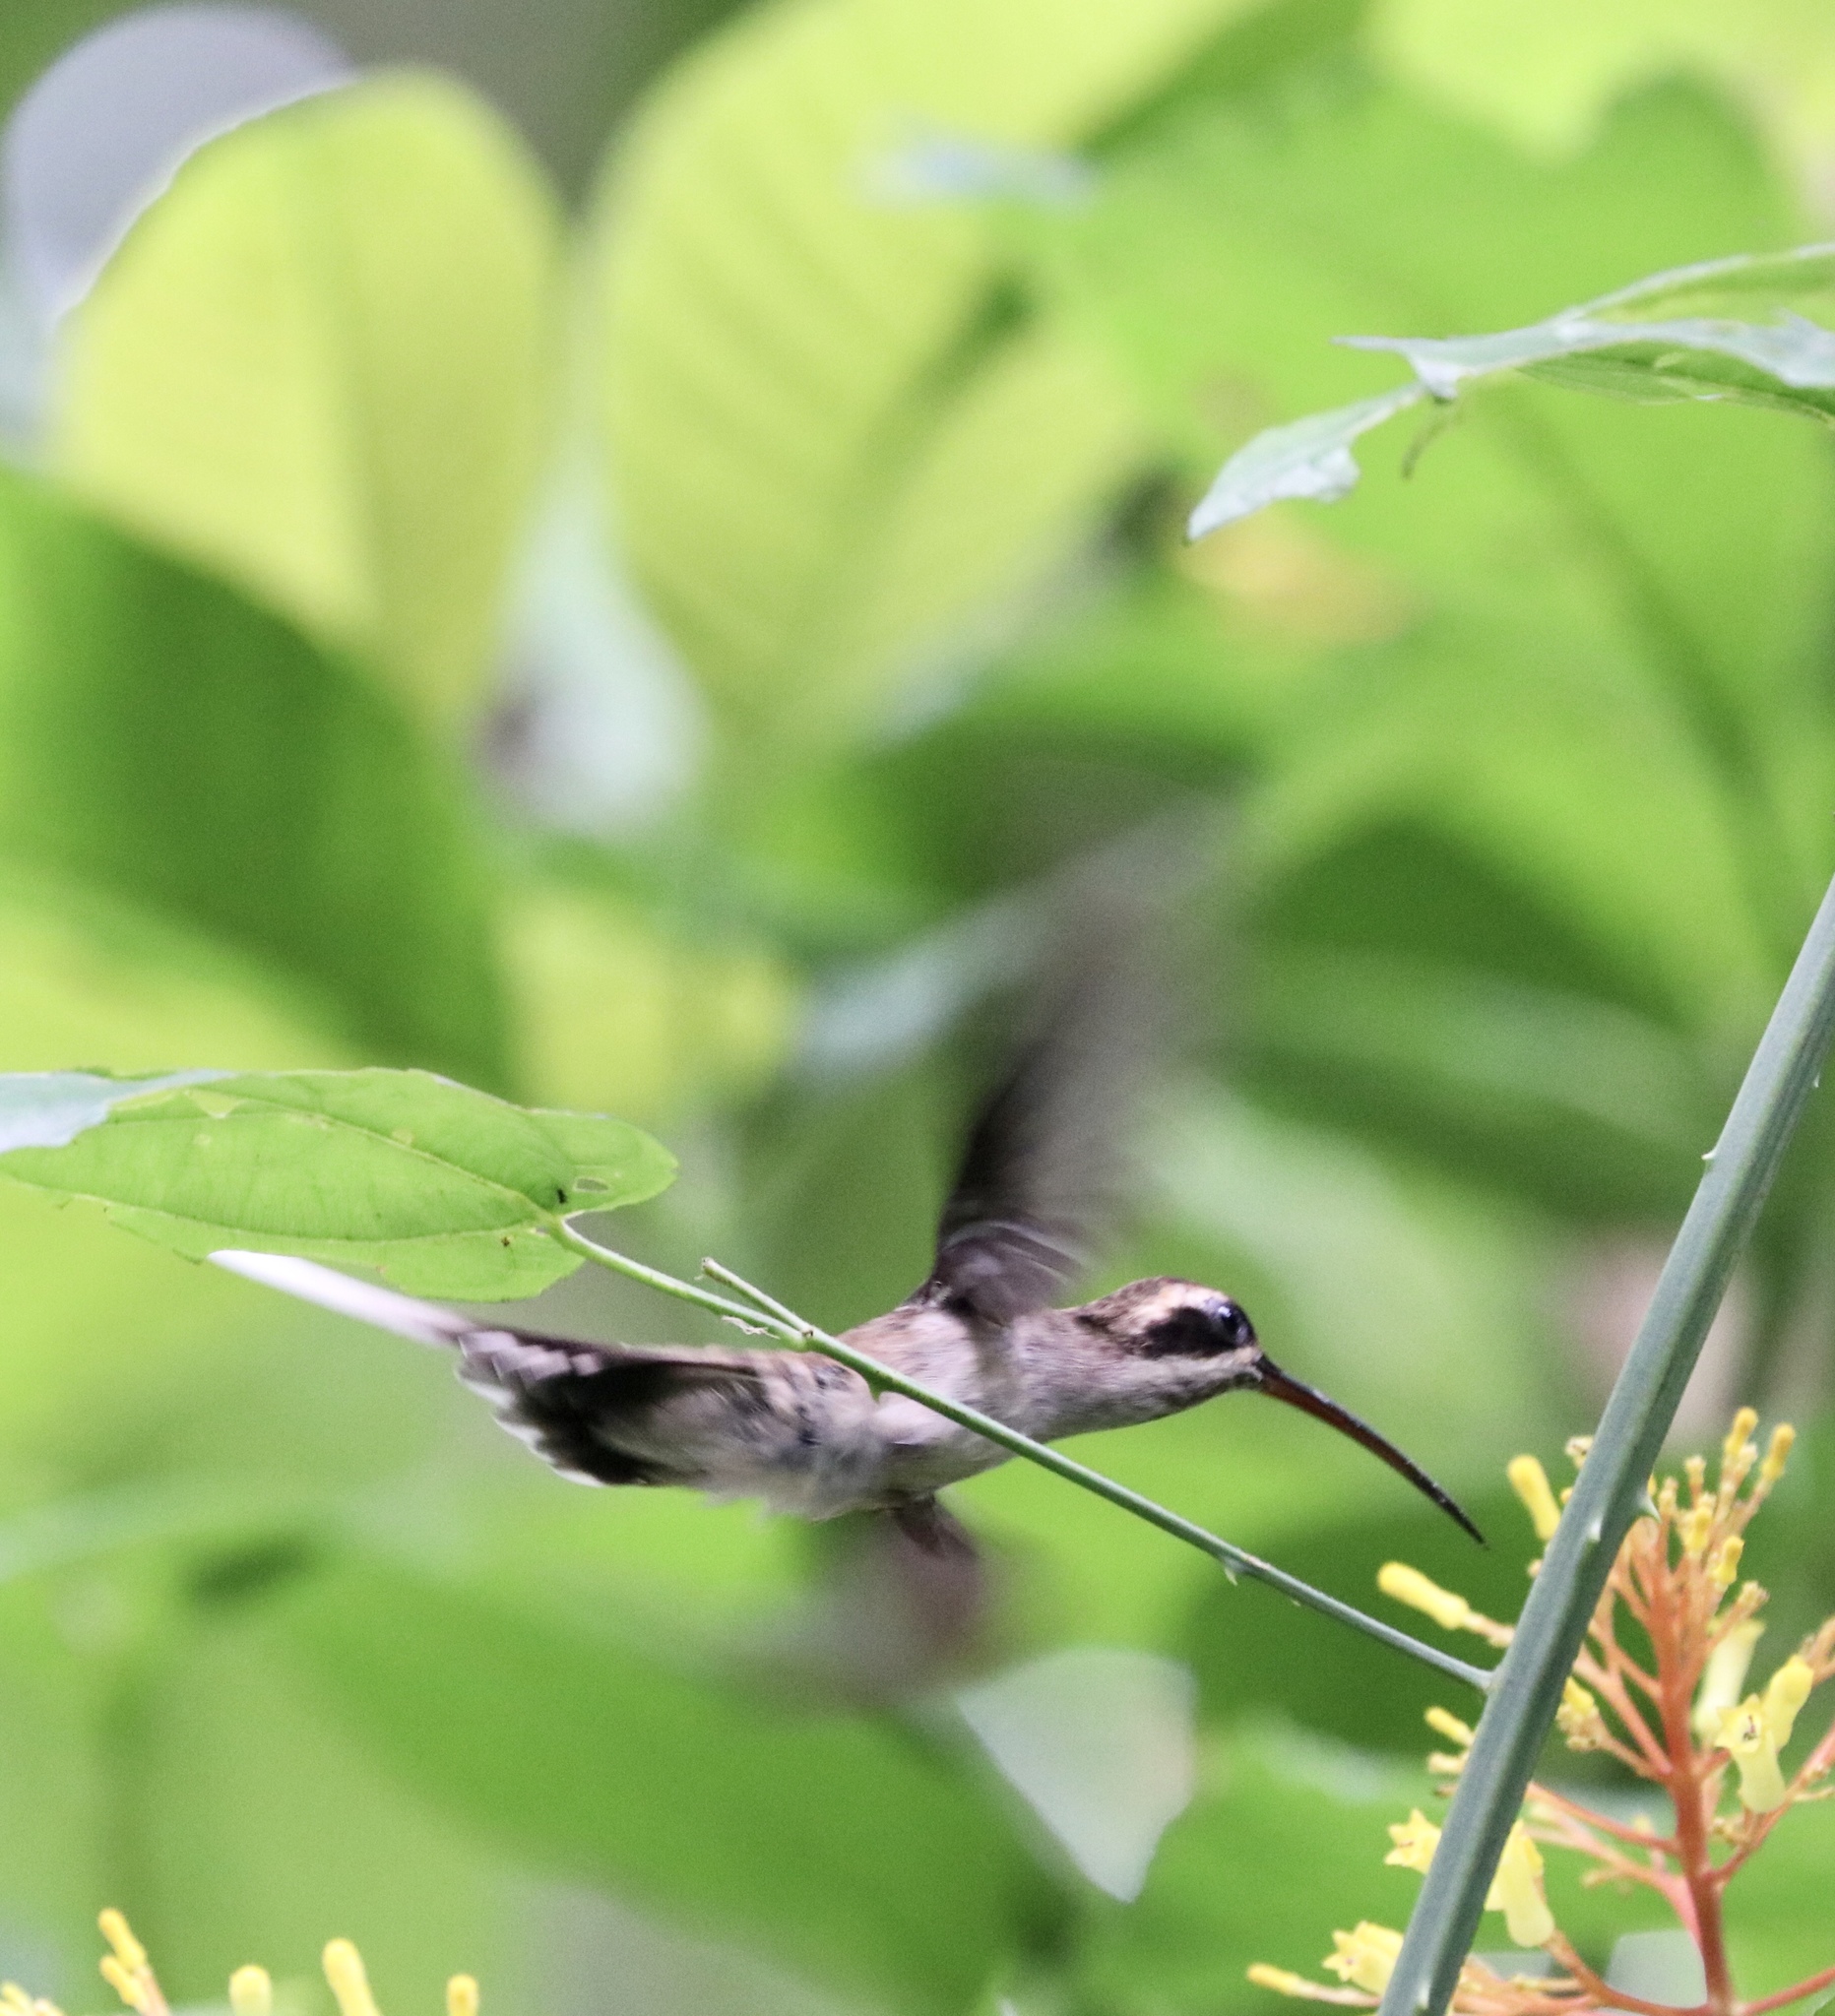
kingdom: Animalia
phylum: Chordata
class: Aves
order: Apodiformes
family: Trochilidae
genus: Phaethornis
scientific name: Phaethornis longirostris
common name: Long-billed hermit
